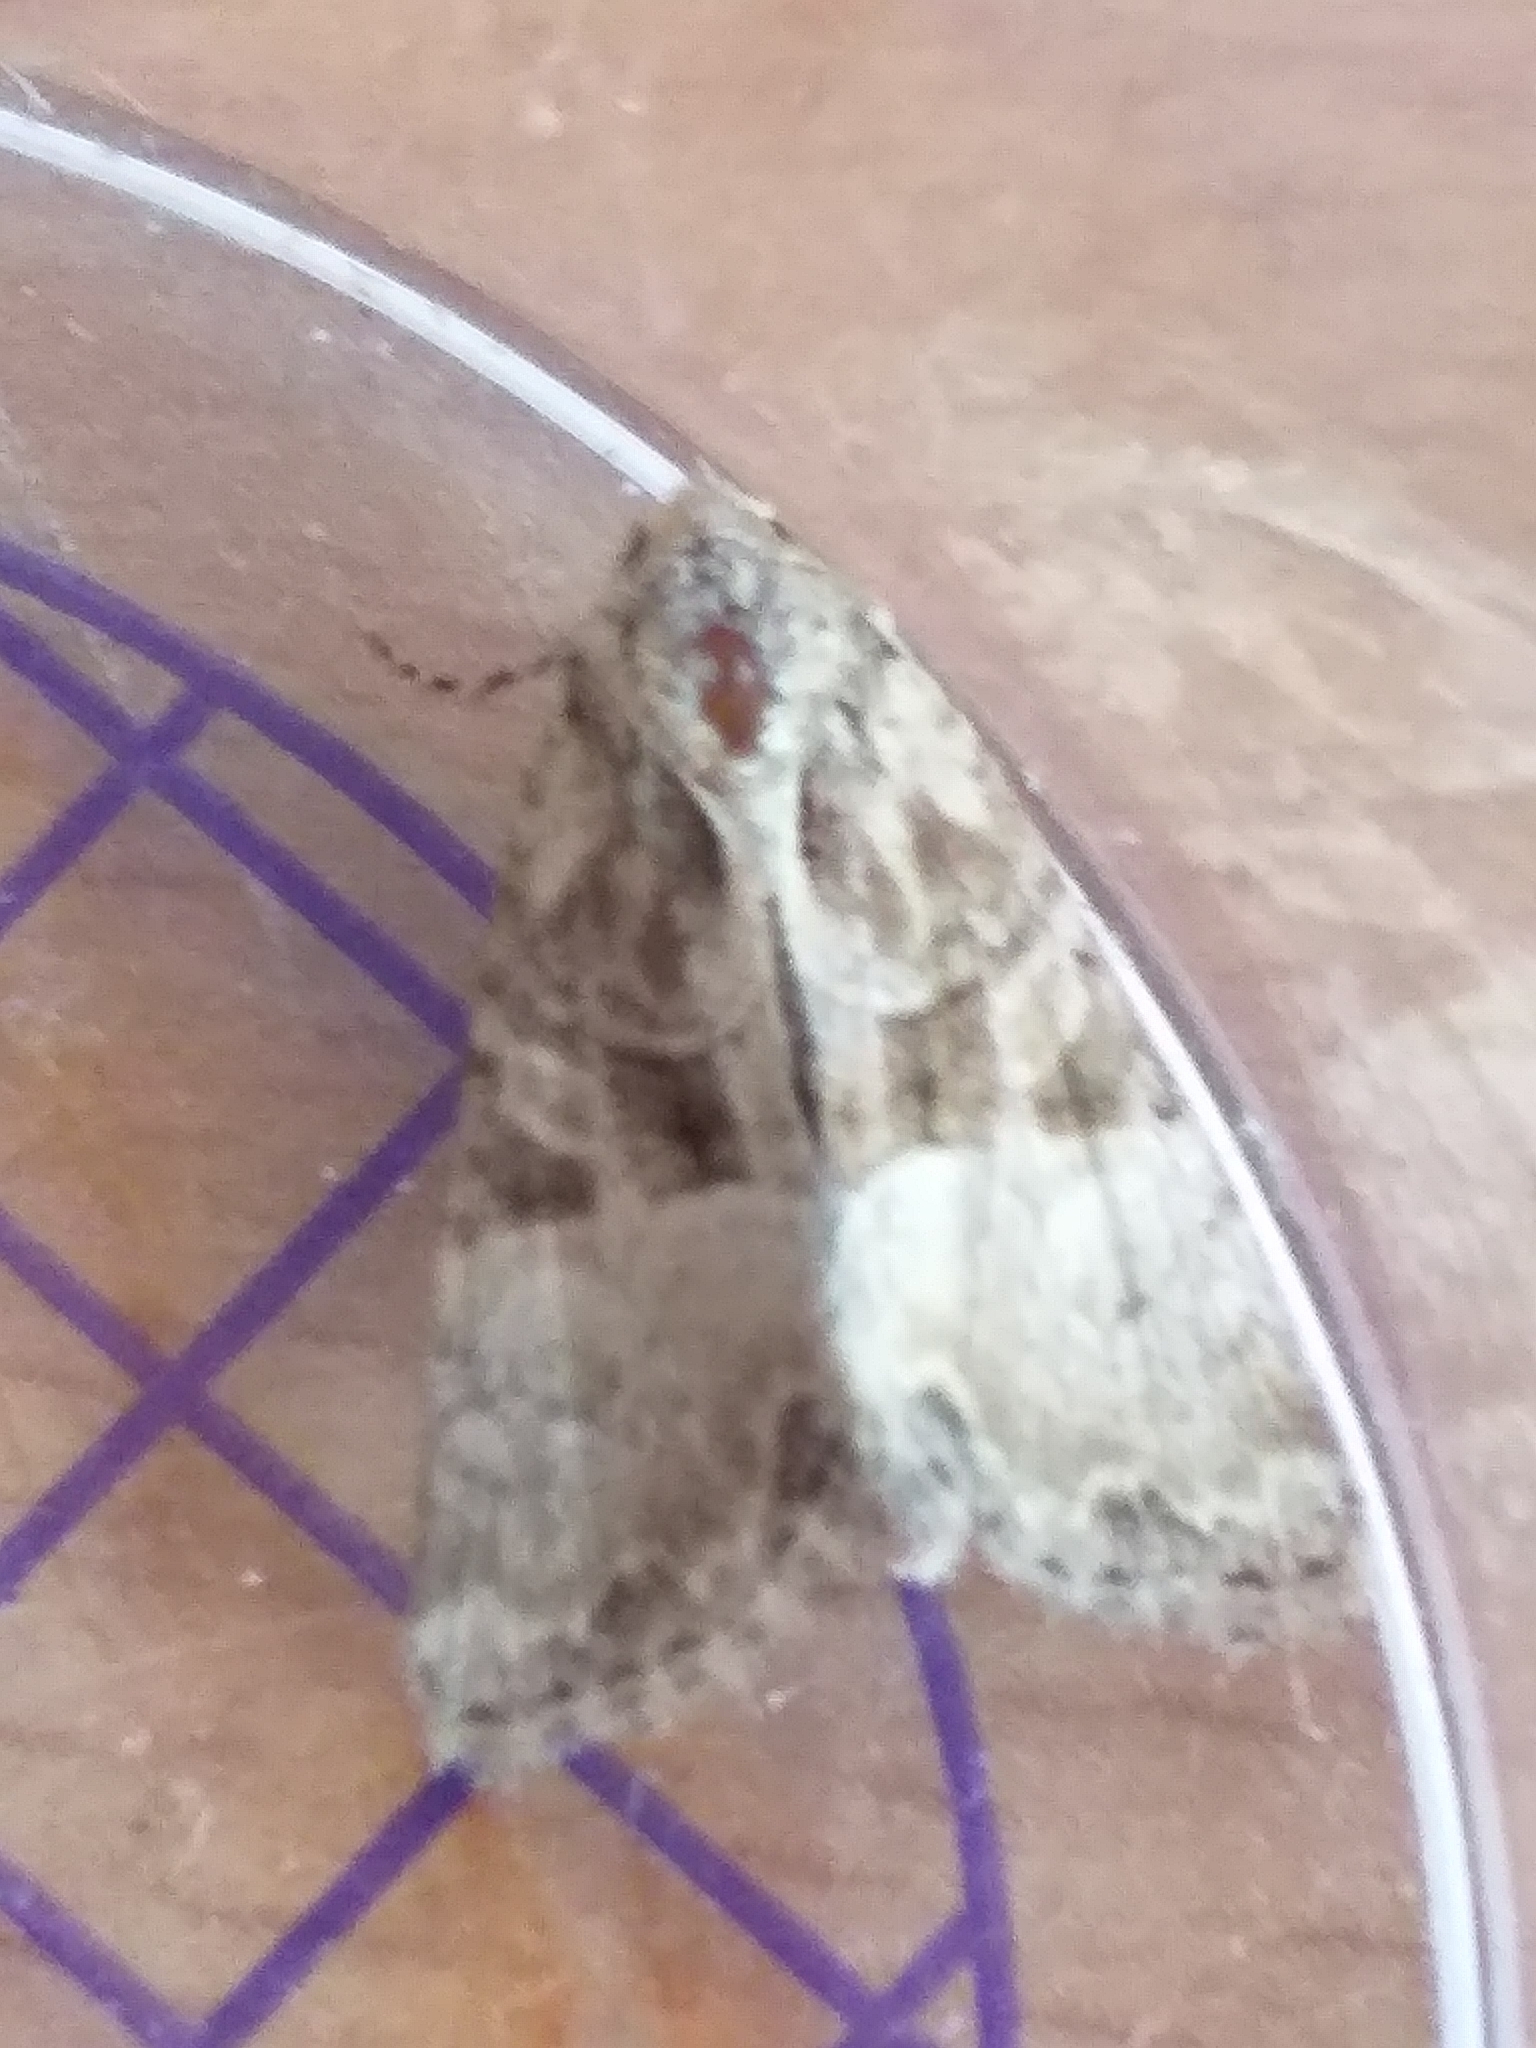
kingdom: Animalia
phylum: Arthropoda
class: Insecta
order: Lepidoptera
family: Noctuidae
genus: Mesoligia
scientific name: Mesoligia furuncula
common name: Cloaked minor
